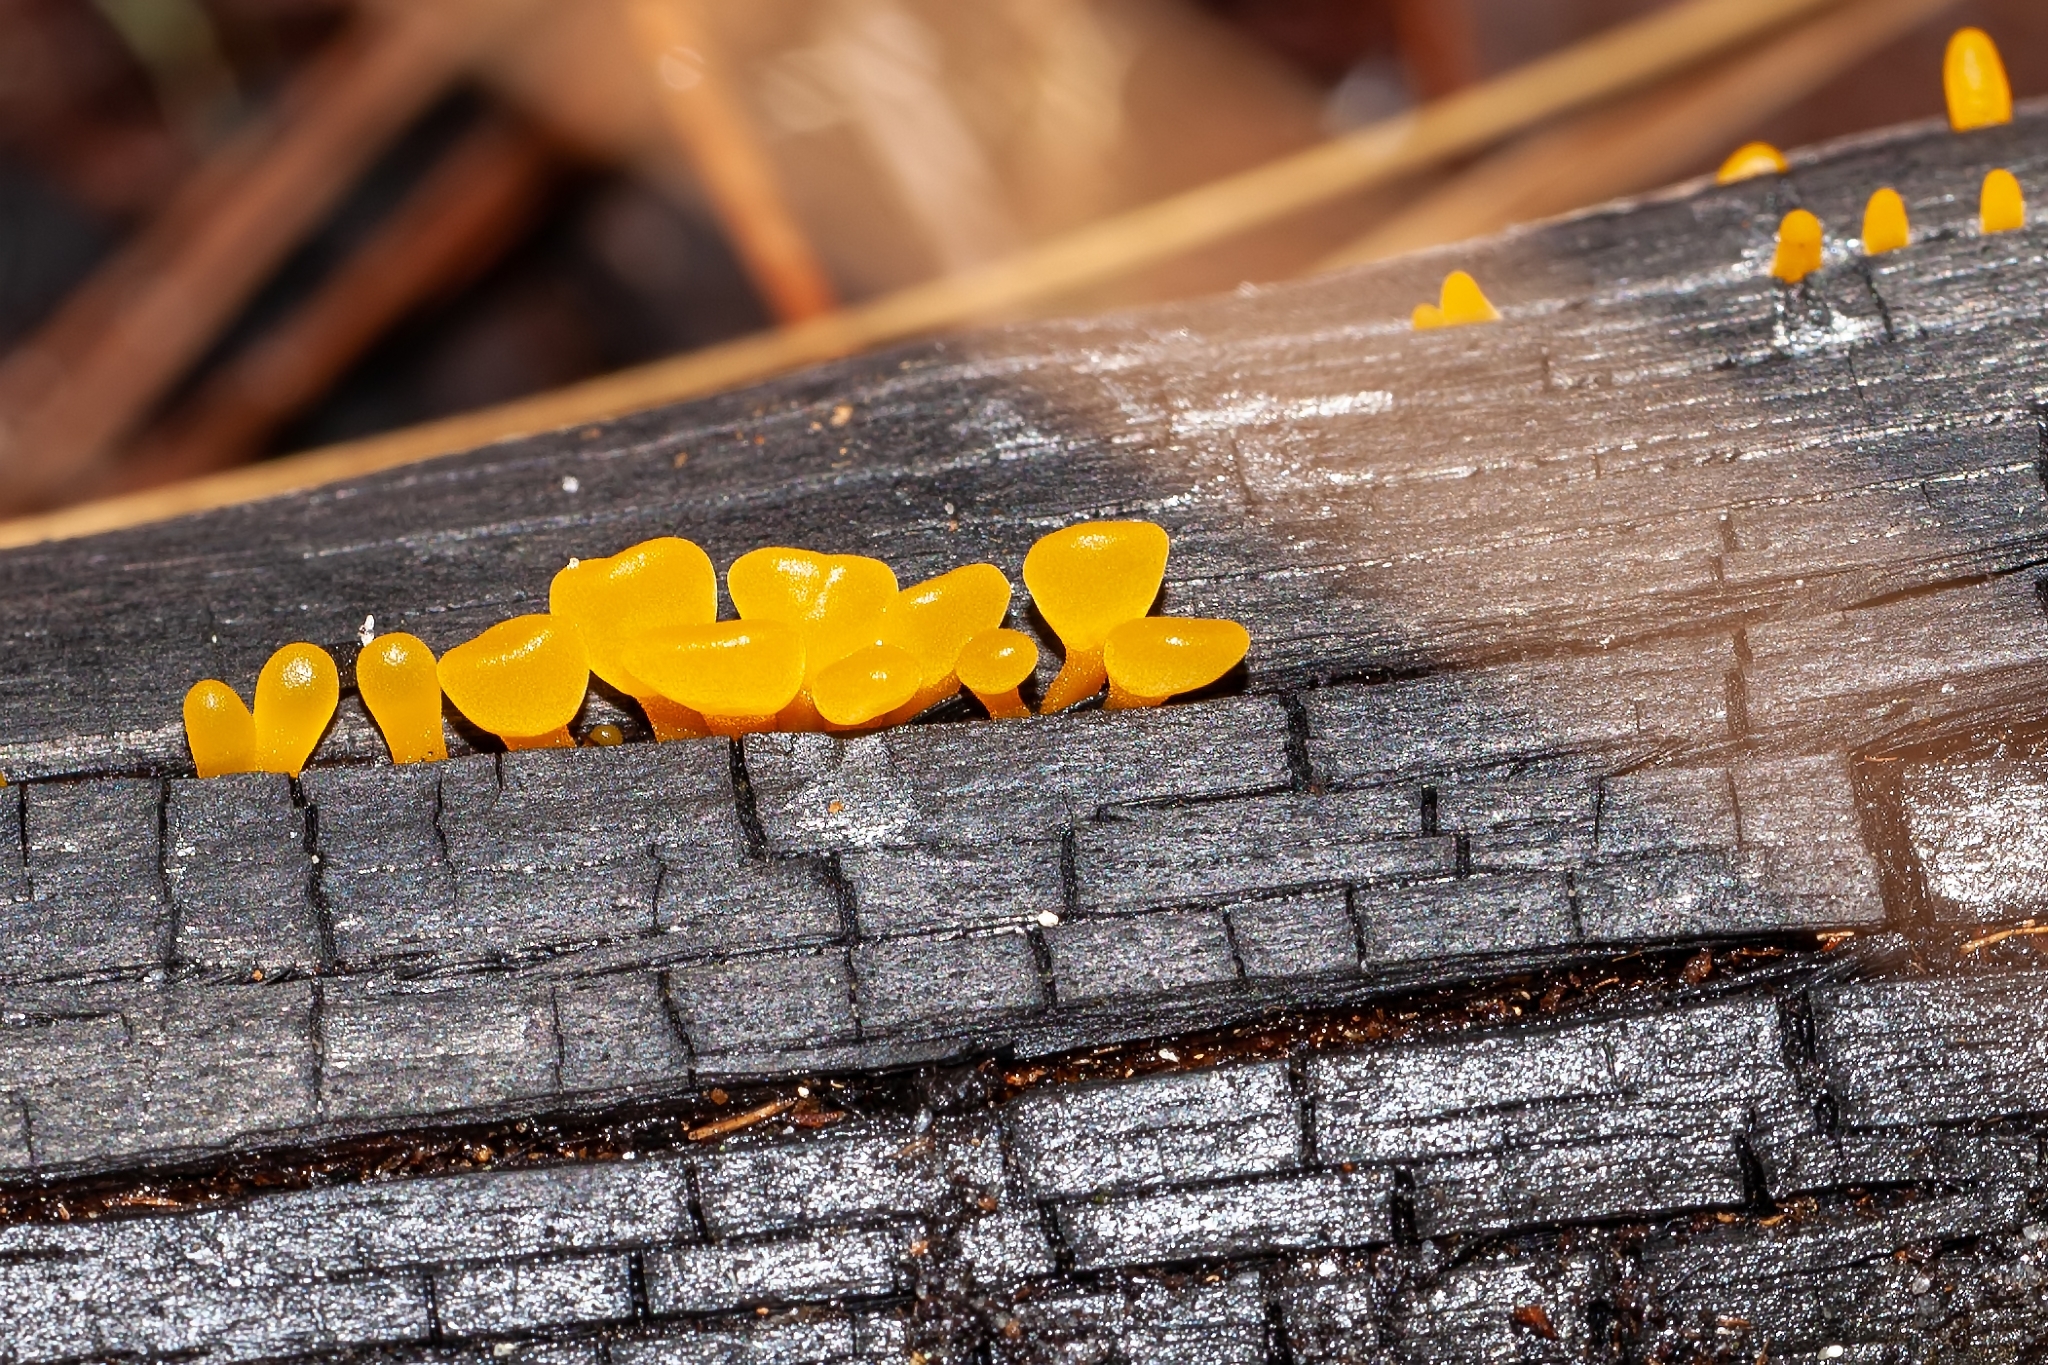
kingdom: Fungi
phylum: Basidiomycota
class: Dacrymycetes
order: Dacrymycetales
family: Dacrymycetaceae
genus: Dacrymyces
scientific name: Dacrymyces spathularius
